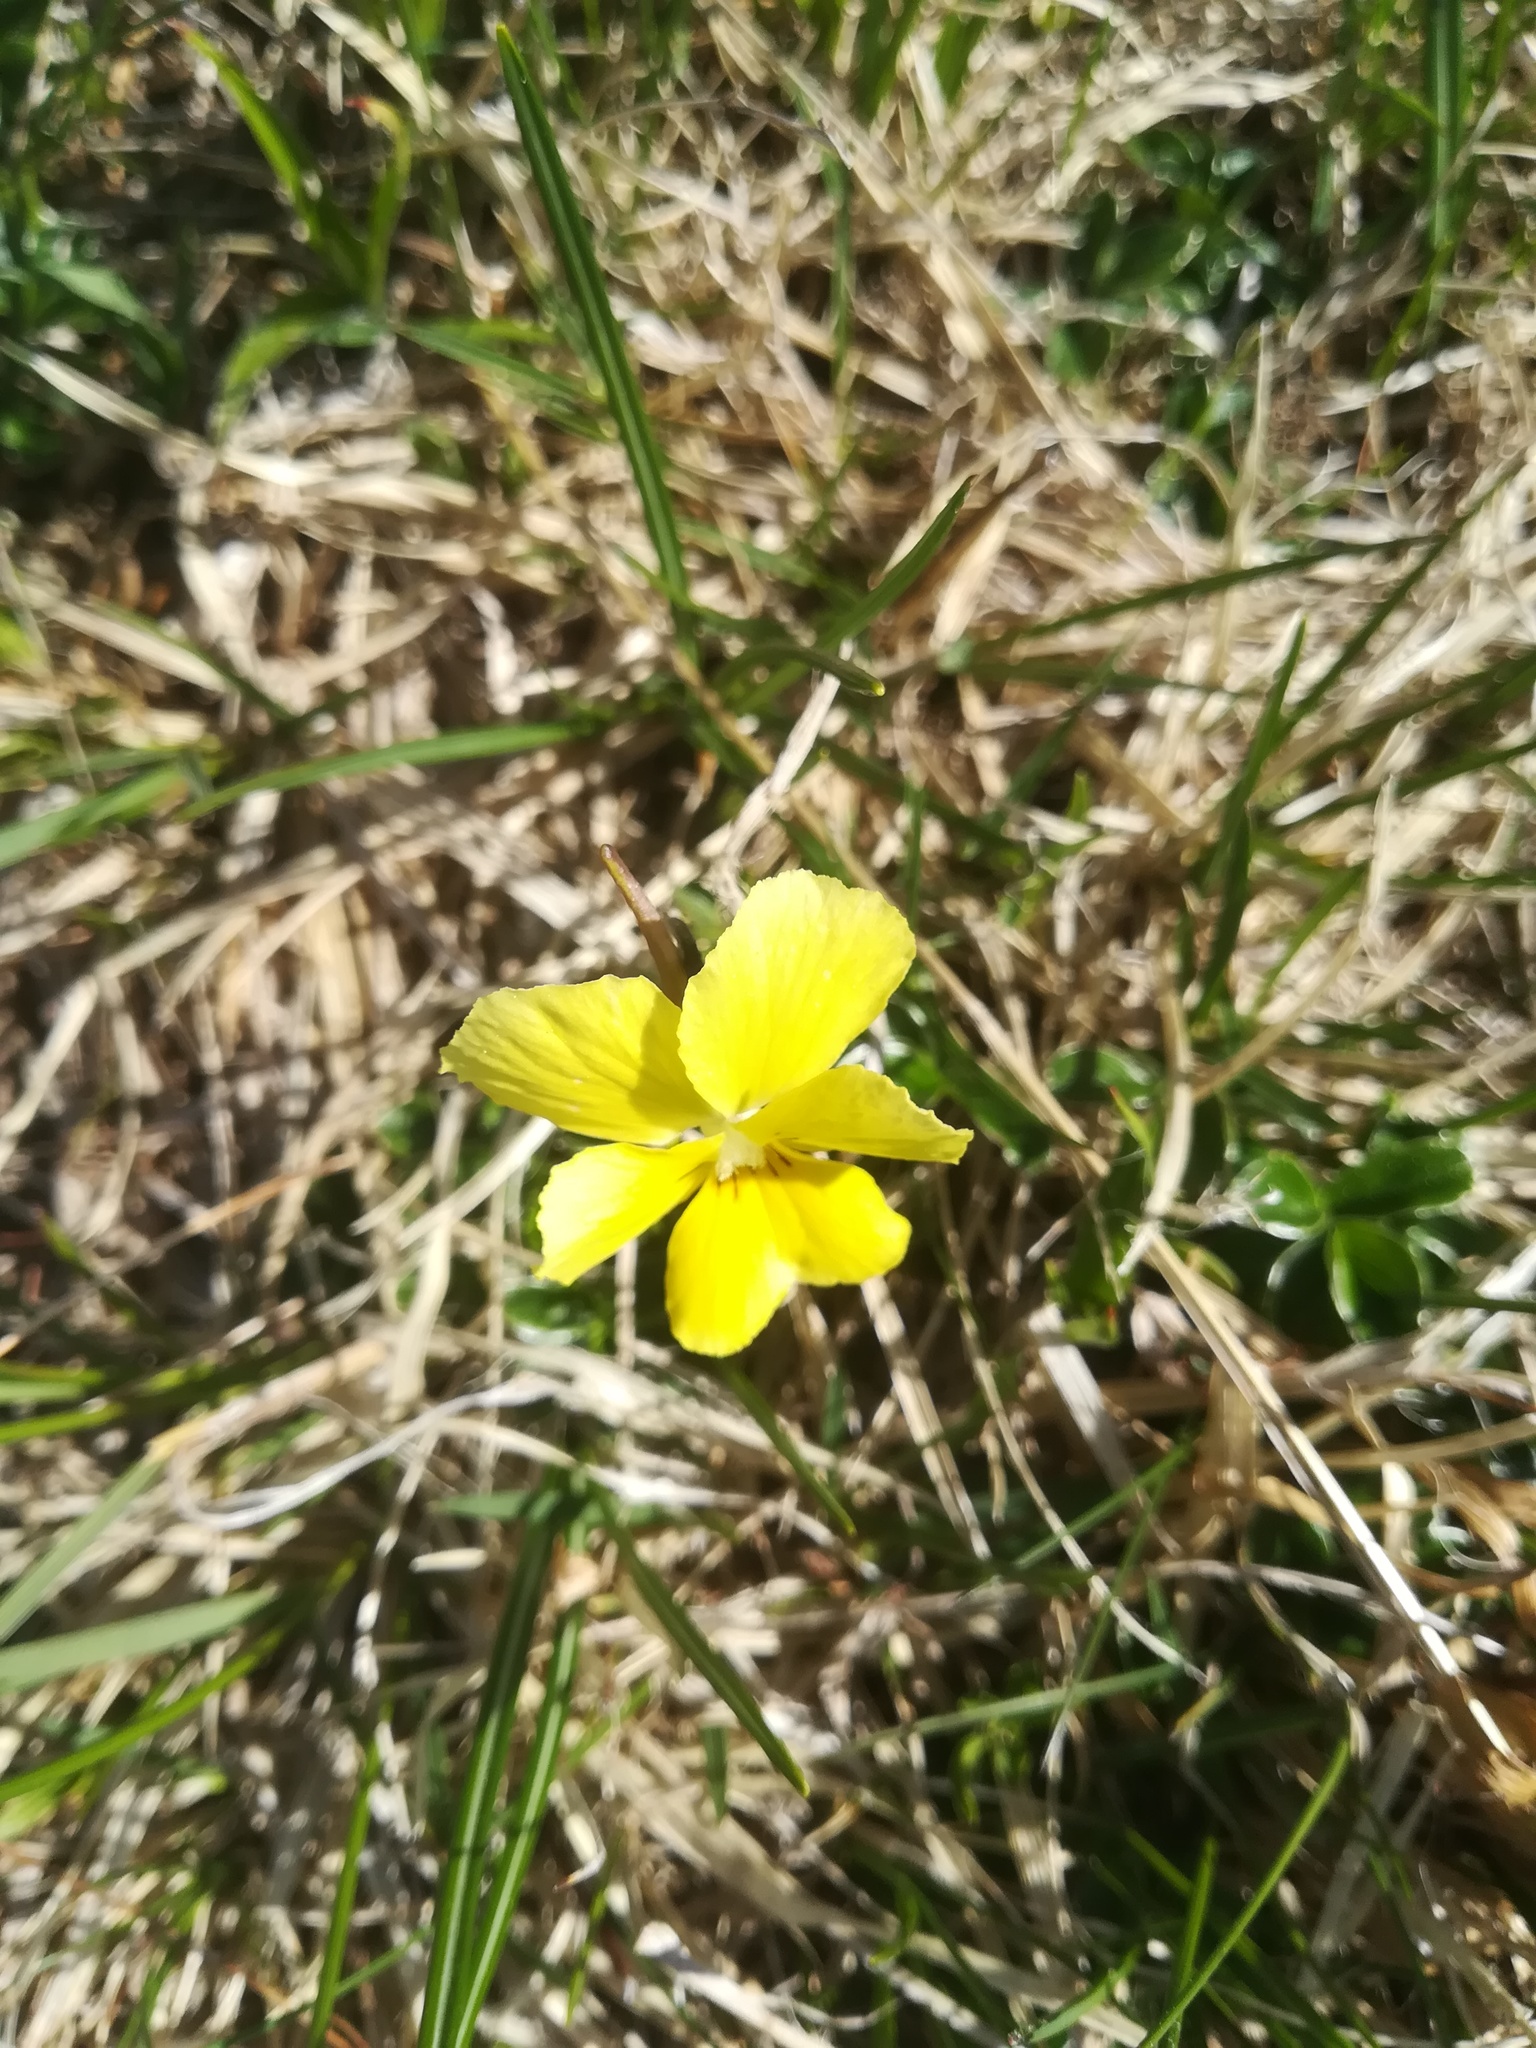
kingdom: Plantae
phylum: Tracheophyta
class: Magnoliopsida
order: Malpighiales
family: Violaceae
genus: Viola
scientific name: Viola ferrarinii
